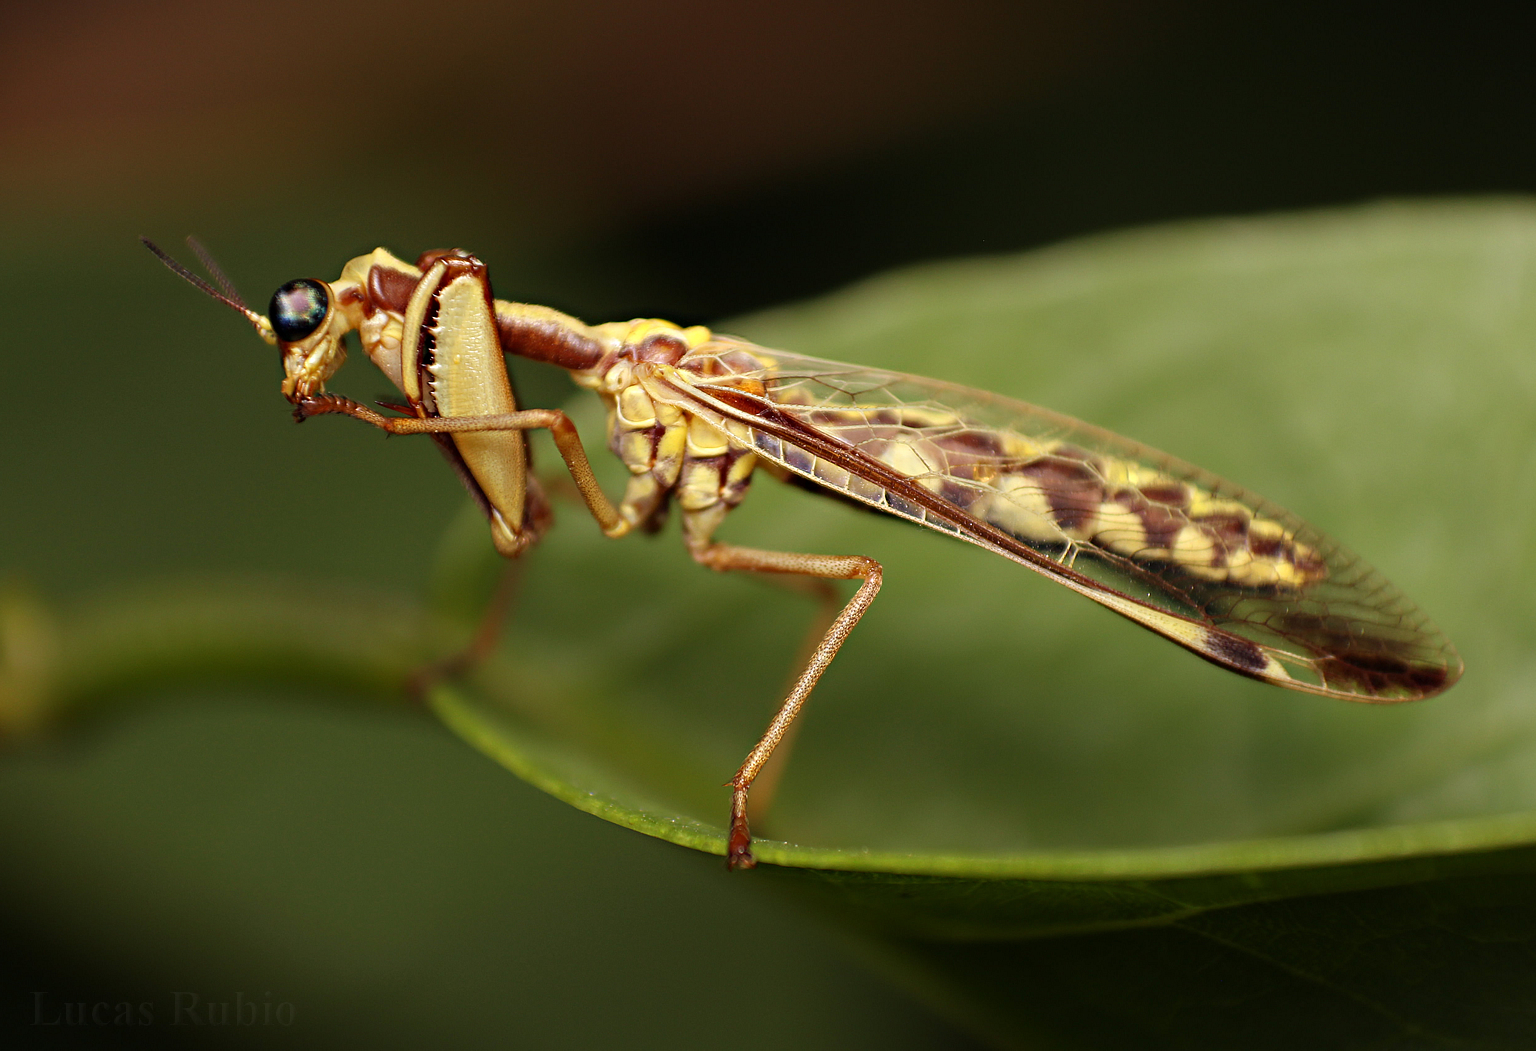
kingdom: Animalia
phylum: Arthropoda
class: Insecta
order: Neuroptera
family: Mantispidae
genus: Paramantispa
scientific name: Paramantispa prolixa
